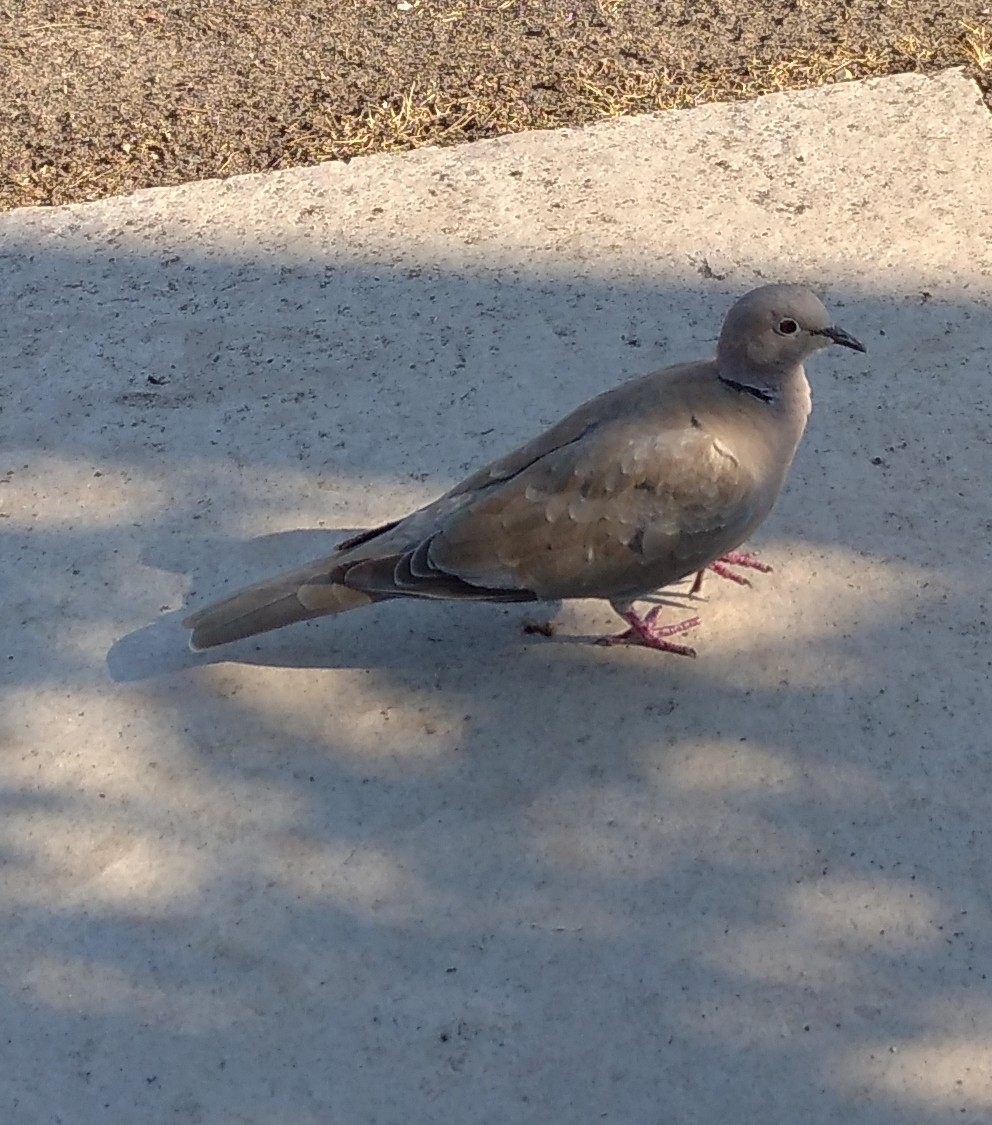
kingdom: Animalia
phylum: Chordata
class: Aves
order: Columbiformes
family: Columbidae
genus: Streptopelia
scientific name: Streptopelia decaocto
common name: Eurasian collared dove
